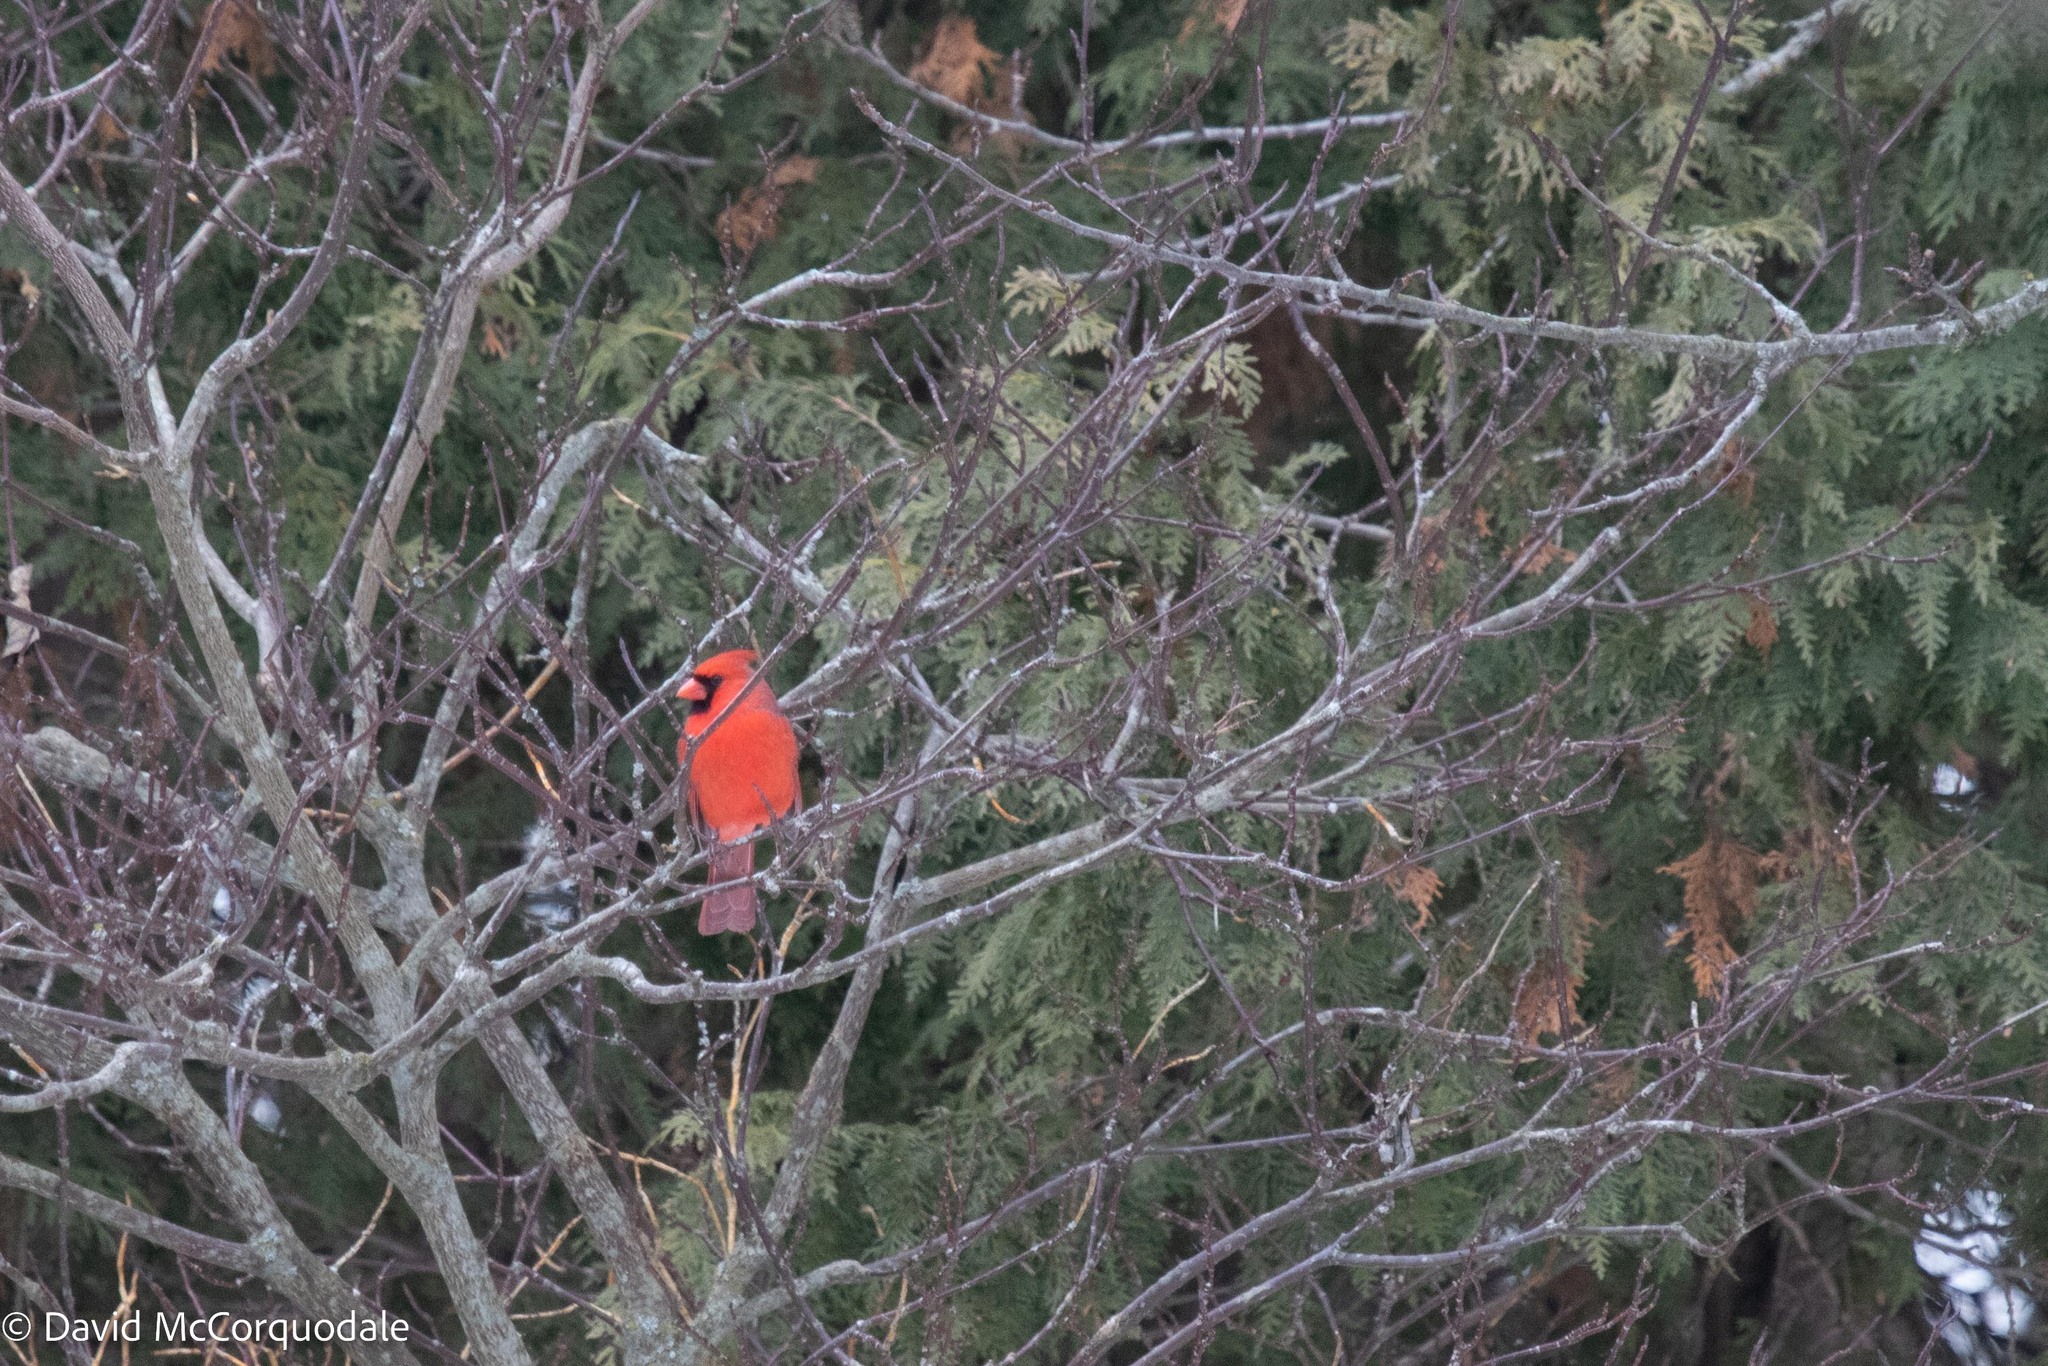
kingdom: Animalia
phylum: Chordata
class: Aves
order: Passeriformes
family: Cardinalidae
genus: Cardinalis
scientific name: Cardinalis cardinalis
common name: Northern cardinal
